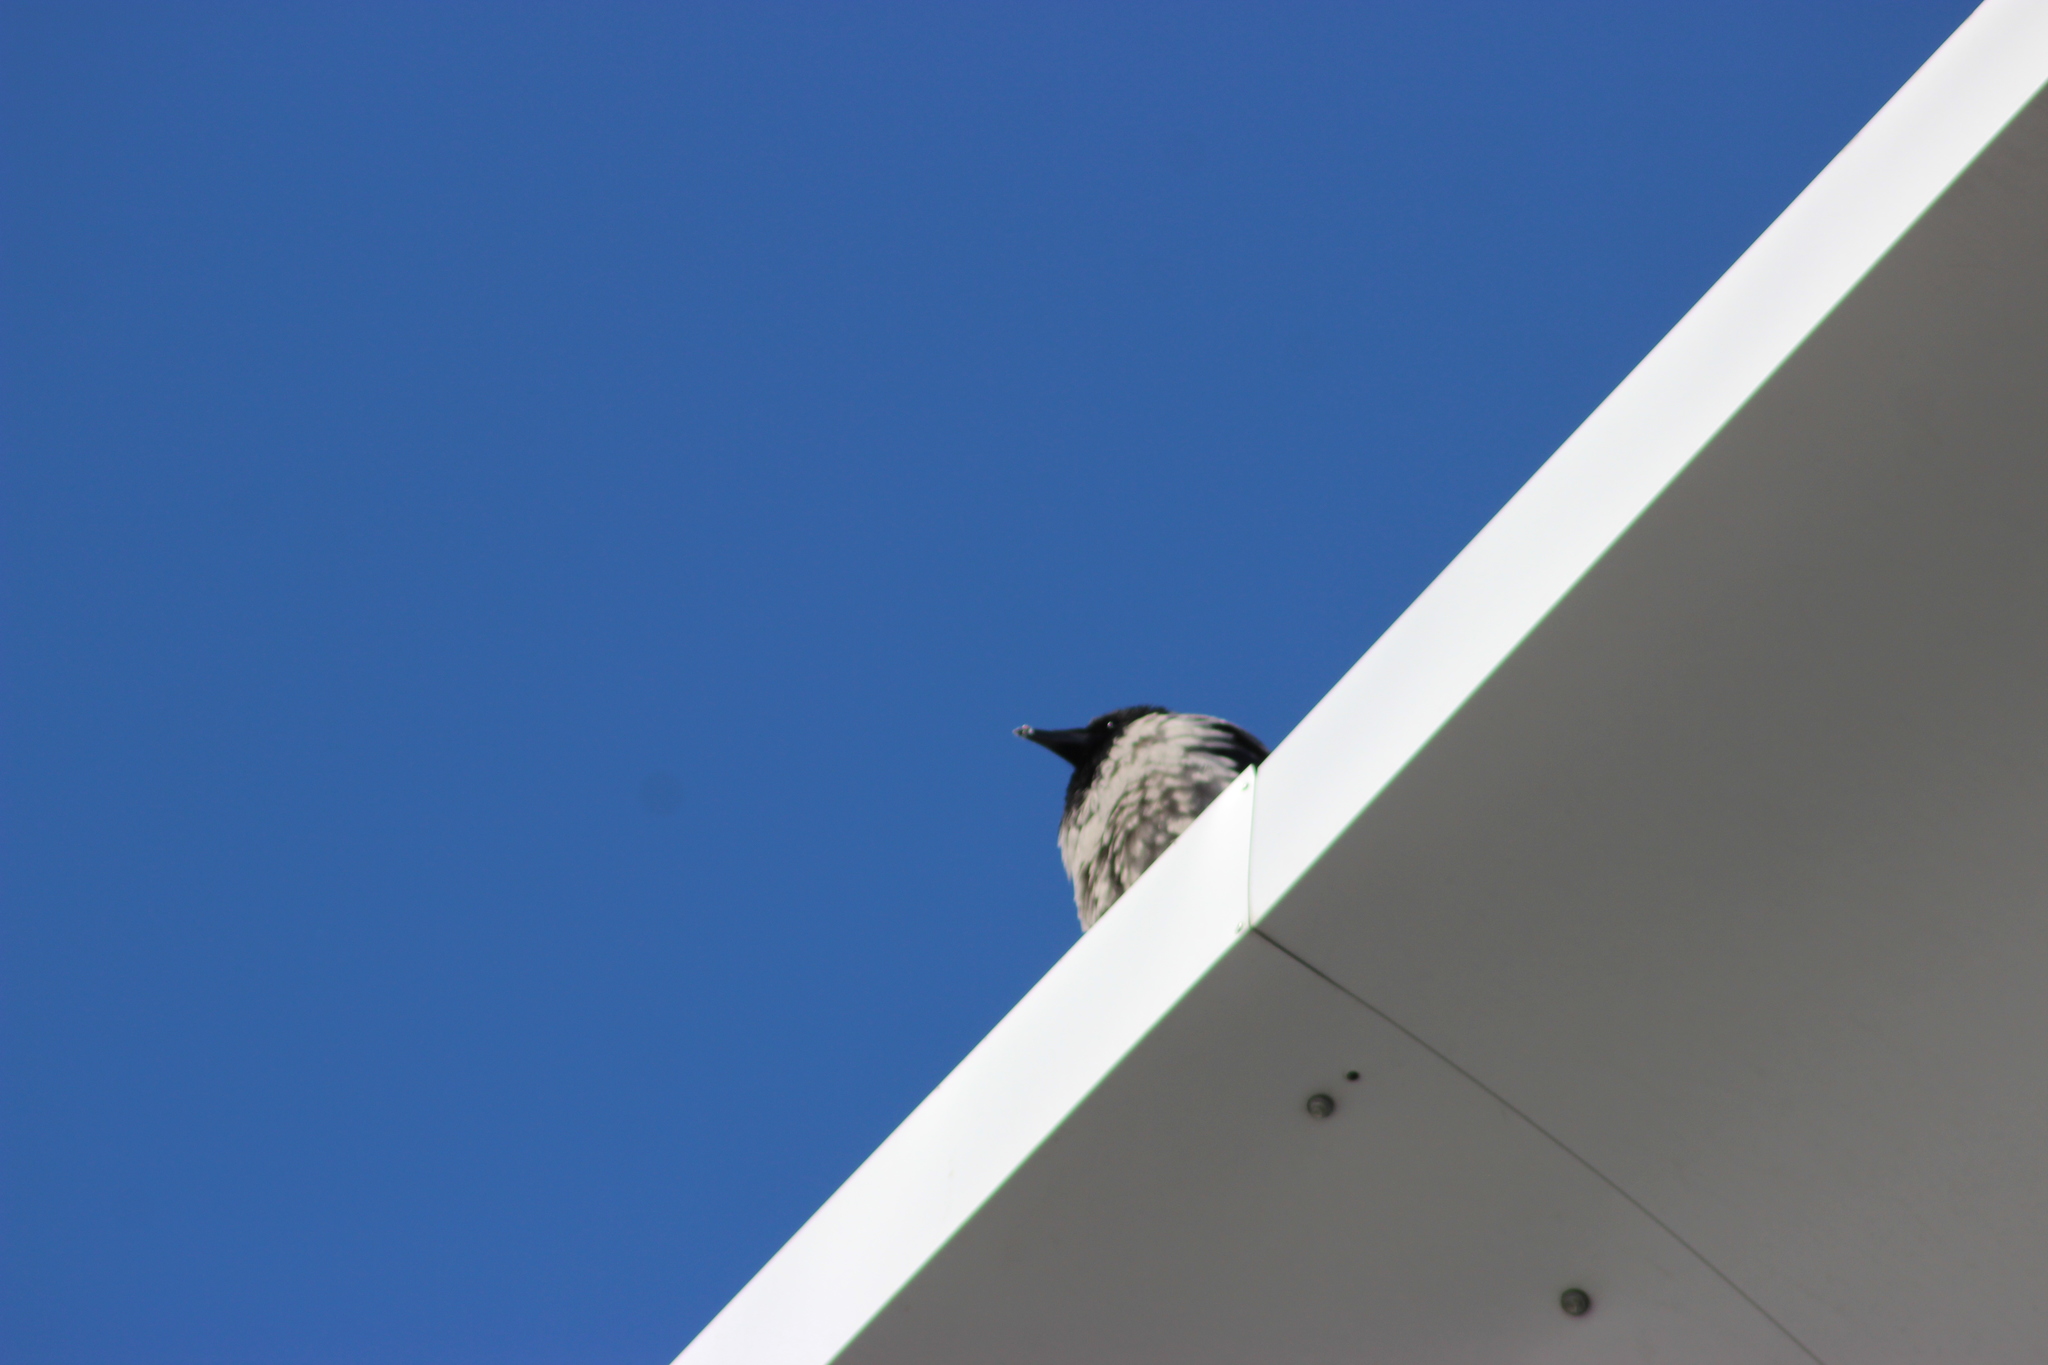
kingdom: Animalia
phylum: Chordata
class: Aves
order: Passeriformes
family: Corvidae
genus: Corvus
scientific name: Corvus cornix
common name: Hooded crow
